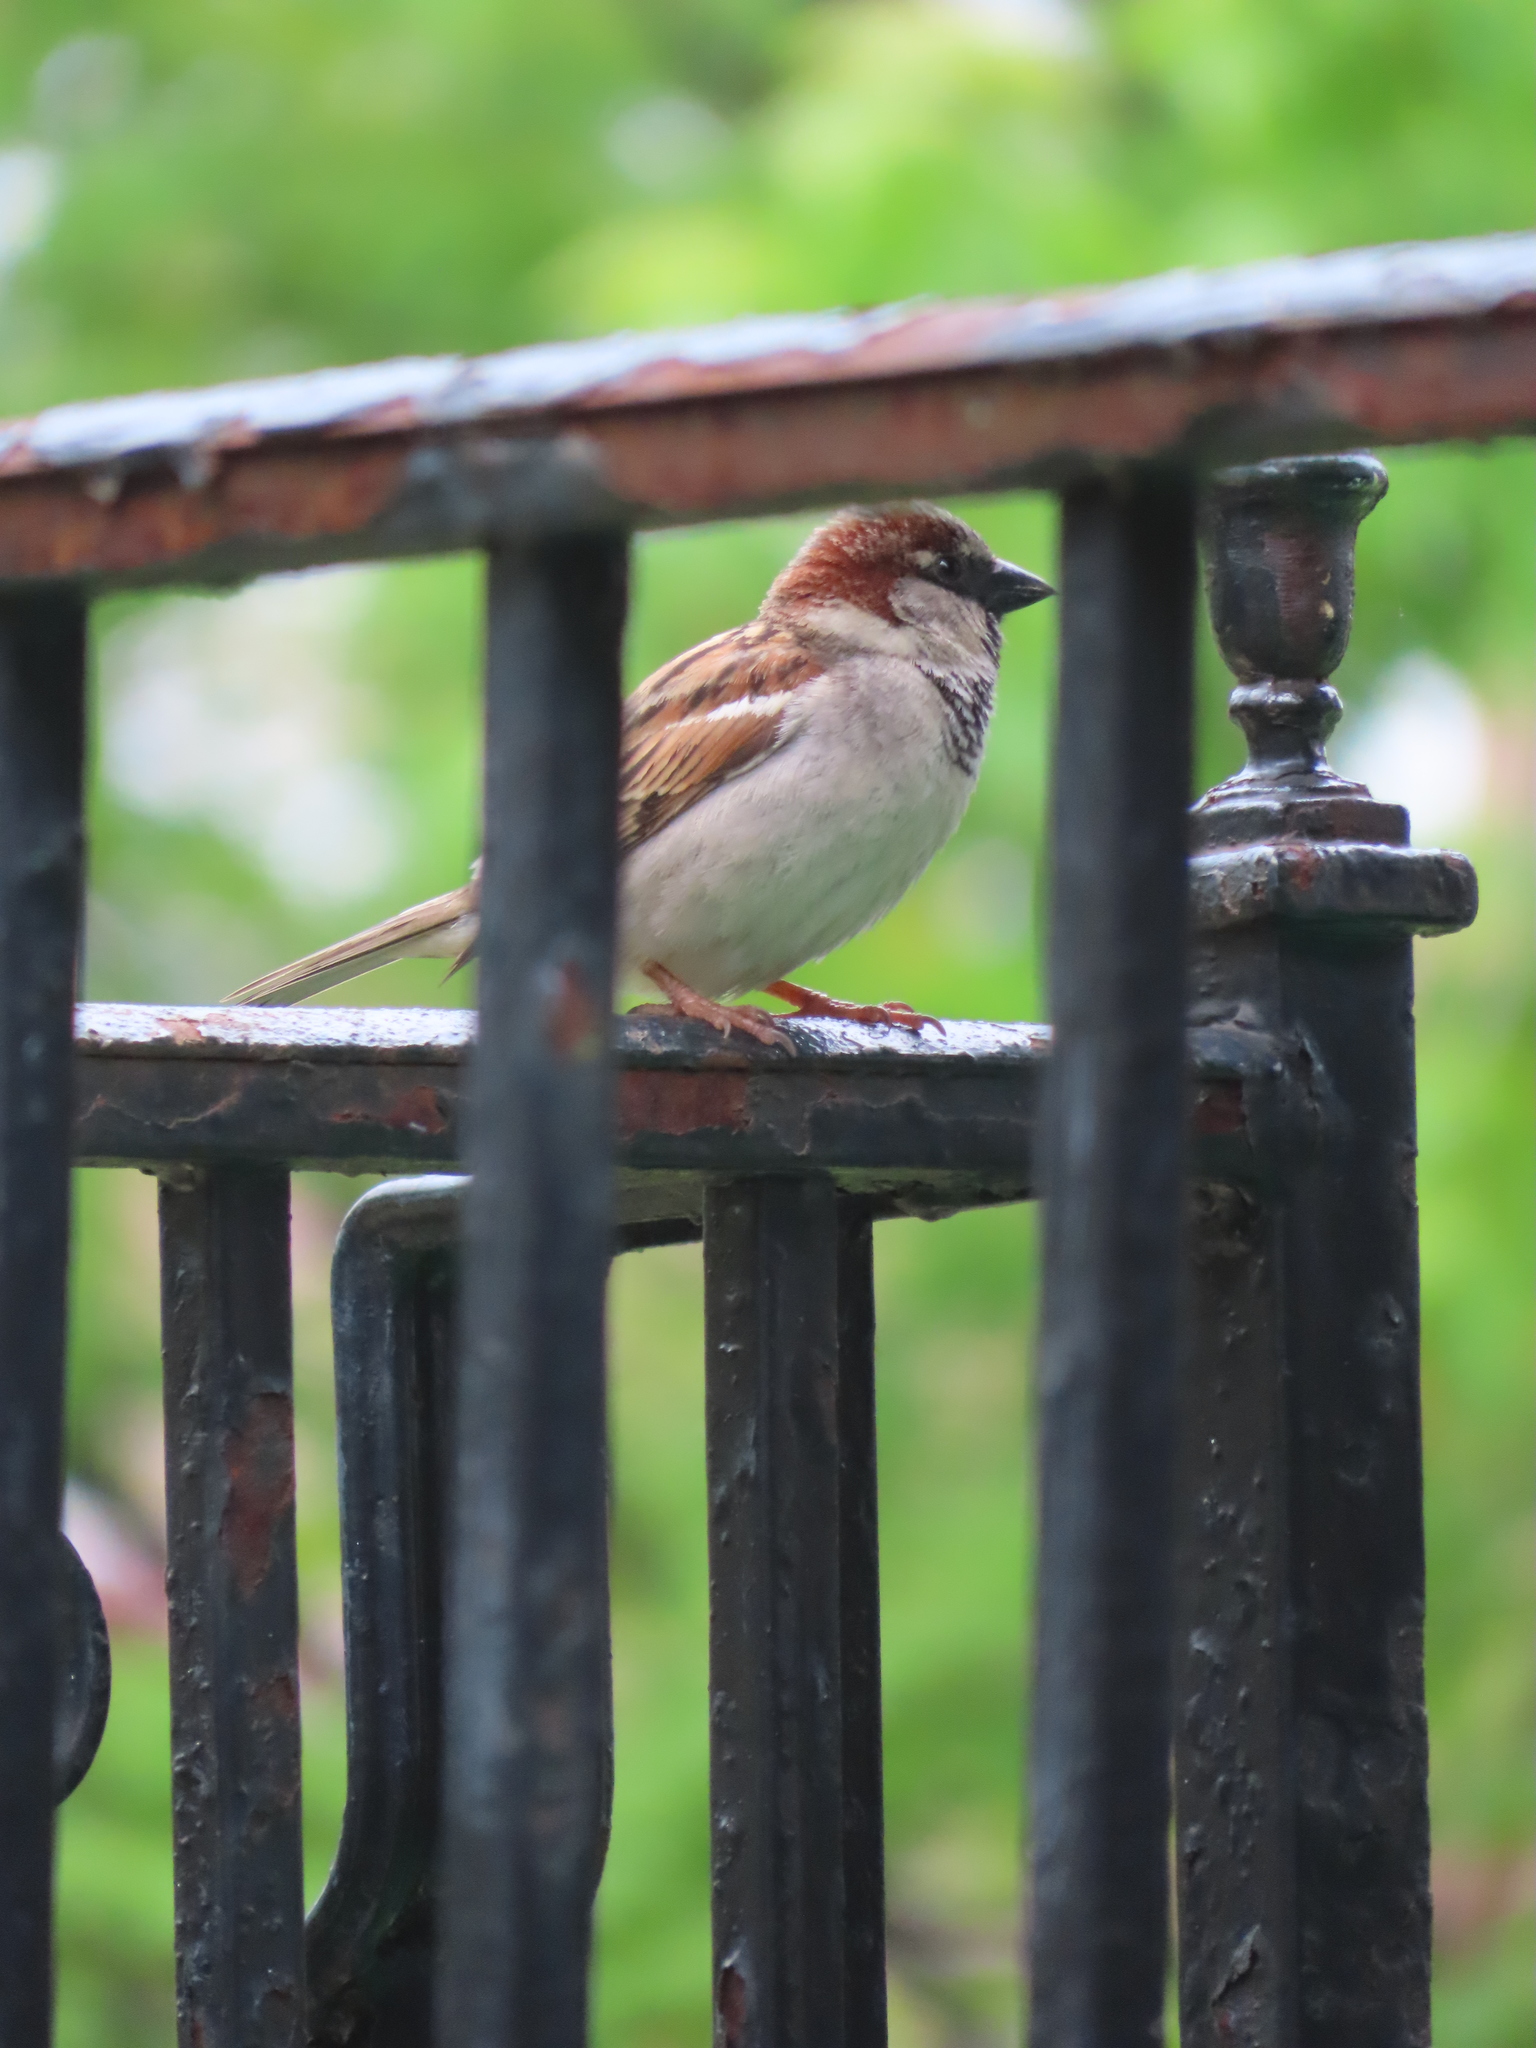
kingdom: Animalia
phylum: Chordata
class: Aves
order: Passeriformes
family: Passeridae
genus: Passer
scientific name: Passer domesticus
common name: House sparrow
